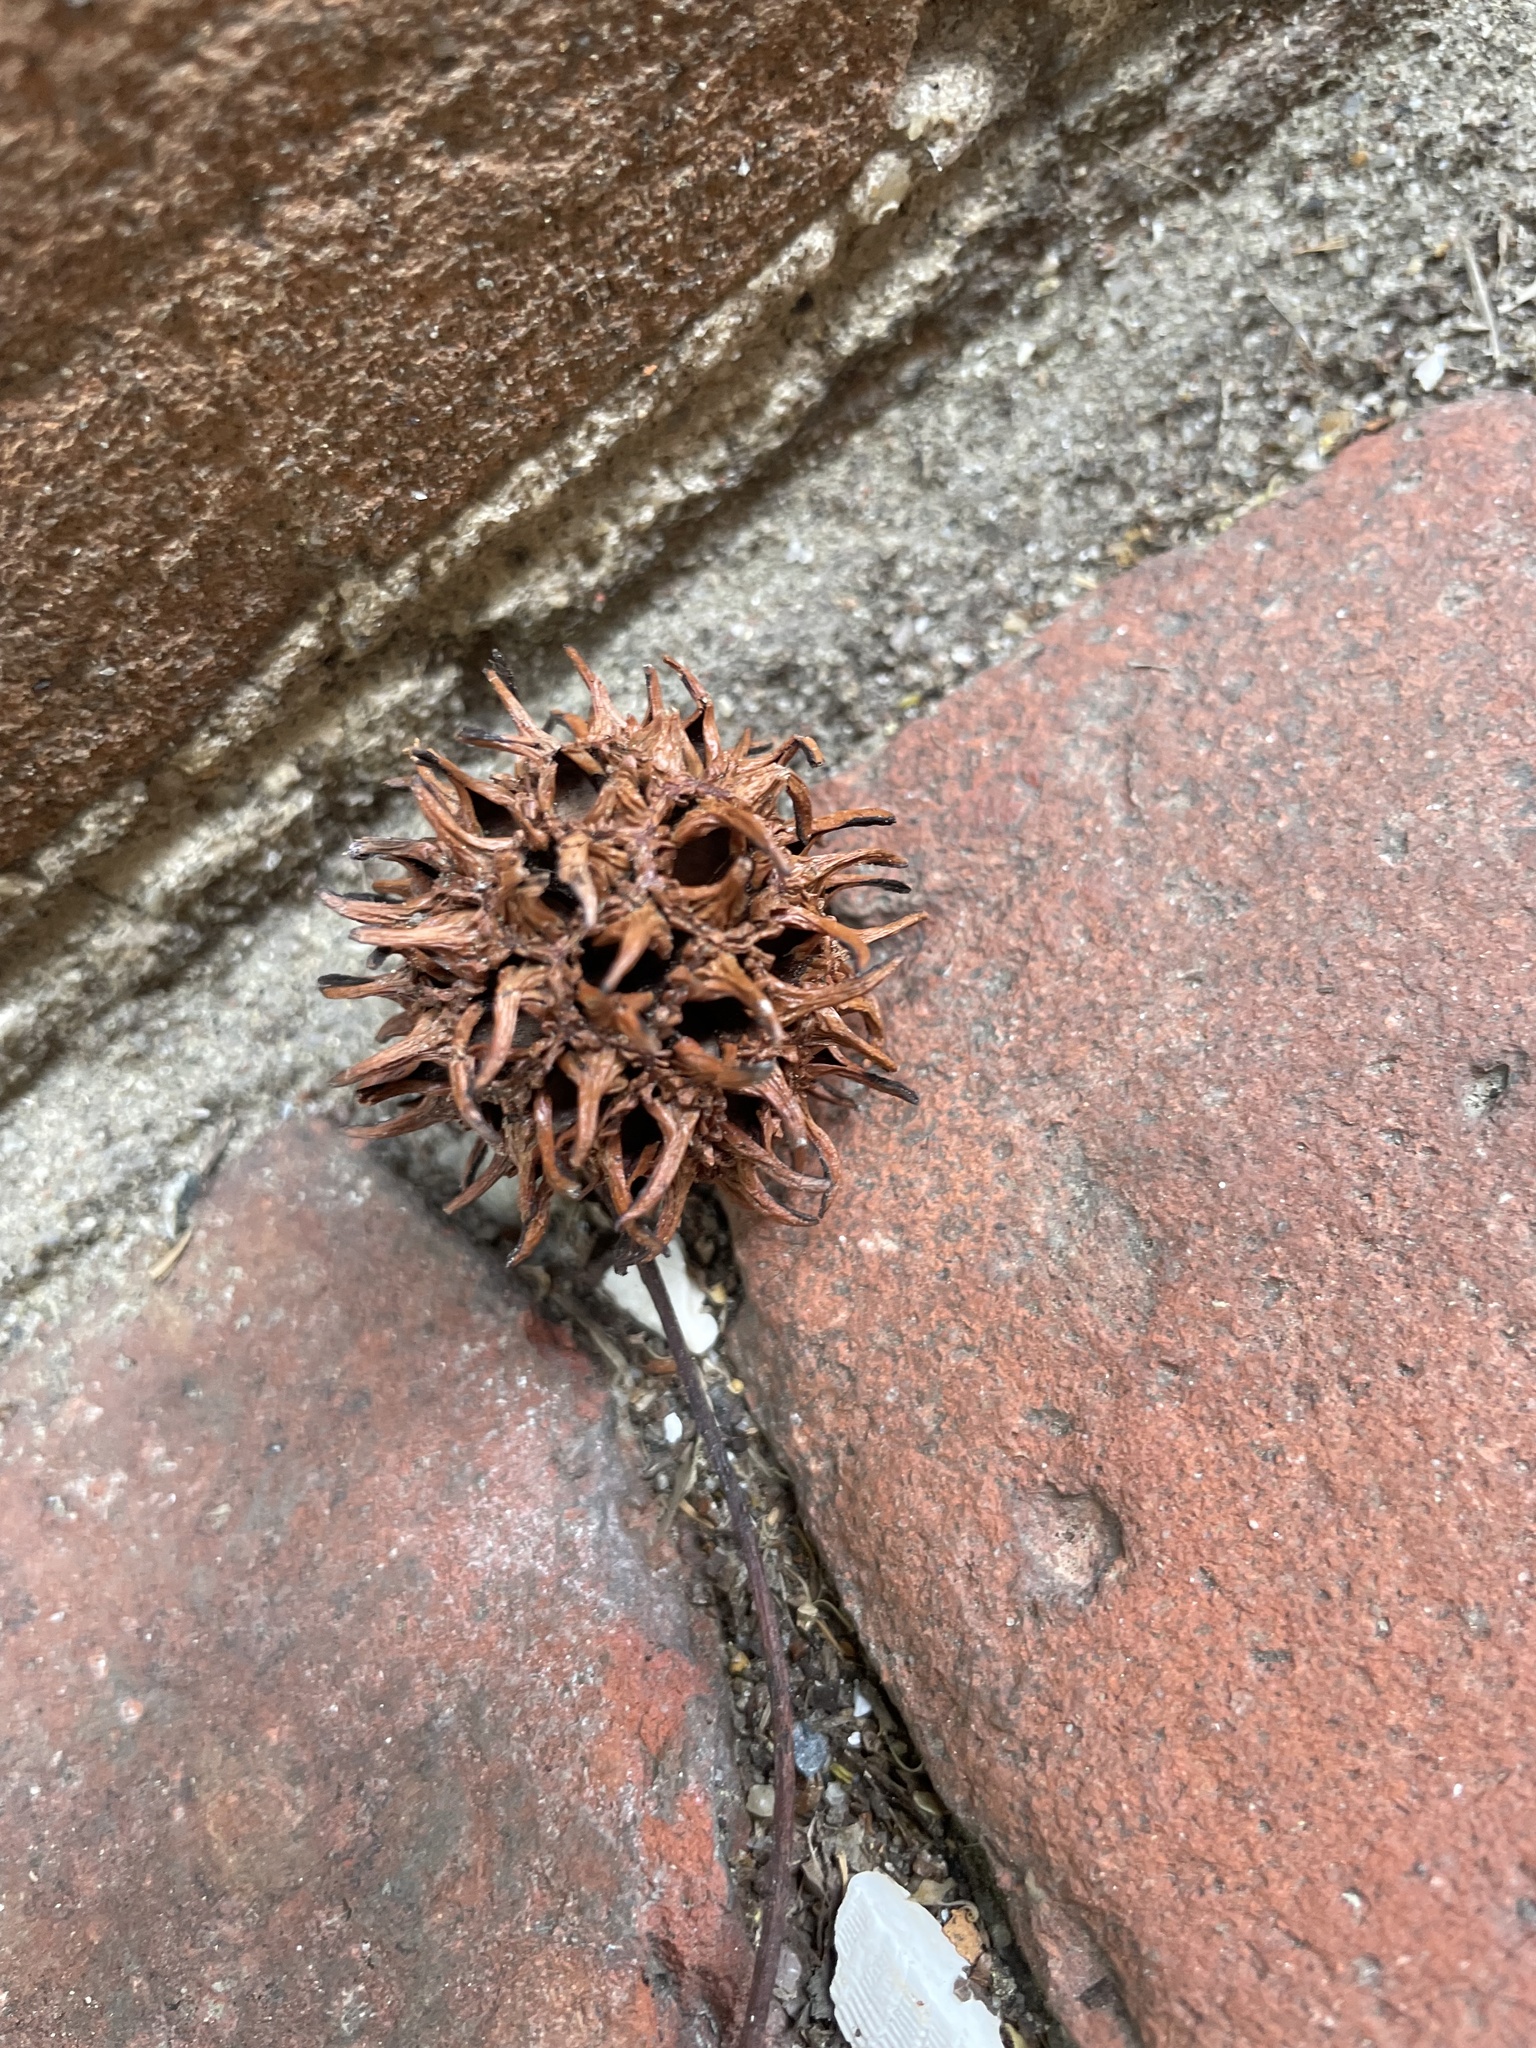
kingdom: Plantae
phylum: Tracheophyta
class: Magnoliopsida
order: Saxifragales
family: Altingiaceae
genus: Liquidambar
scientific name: Liquidambar styraciflua
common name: Sweet gum
